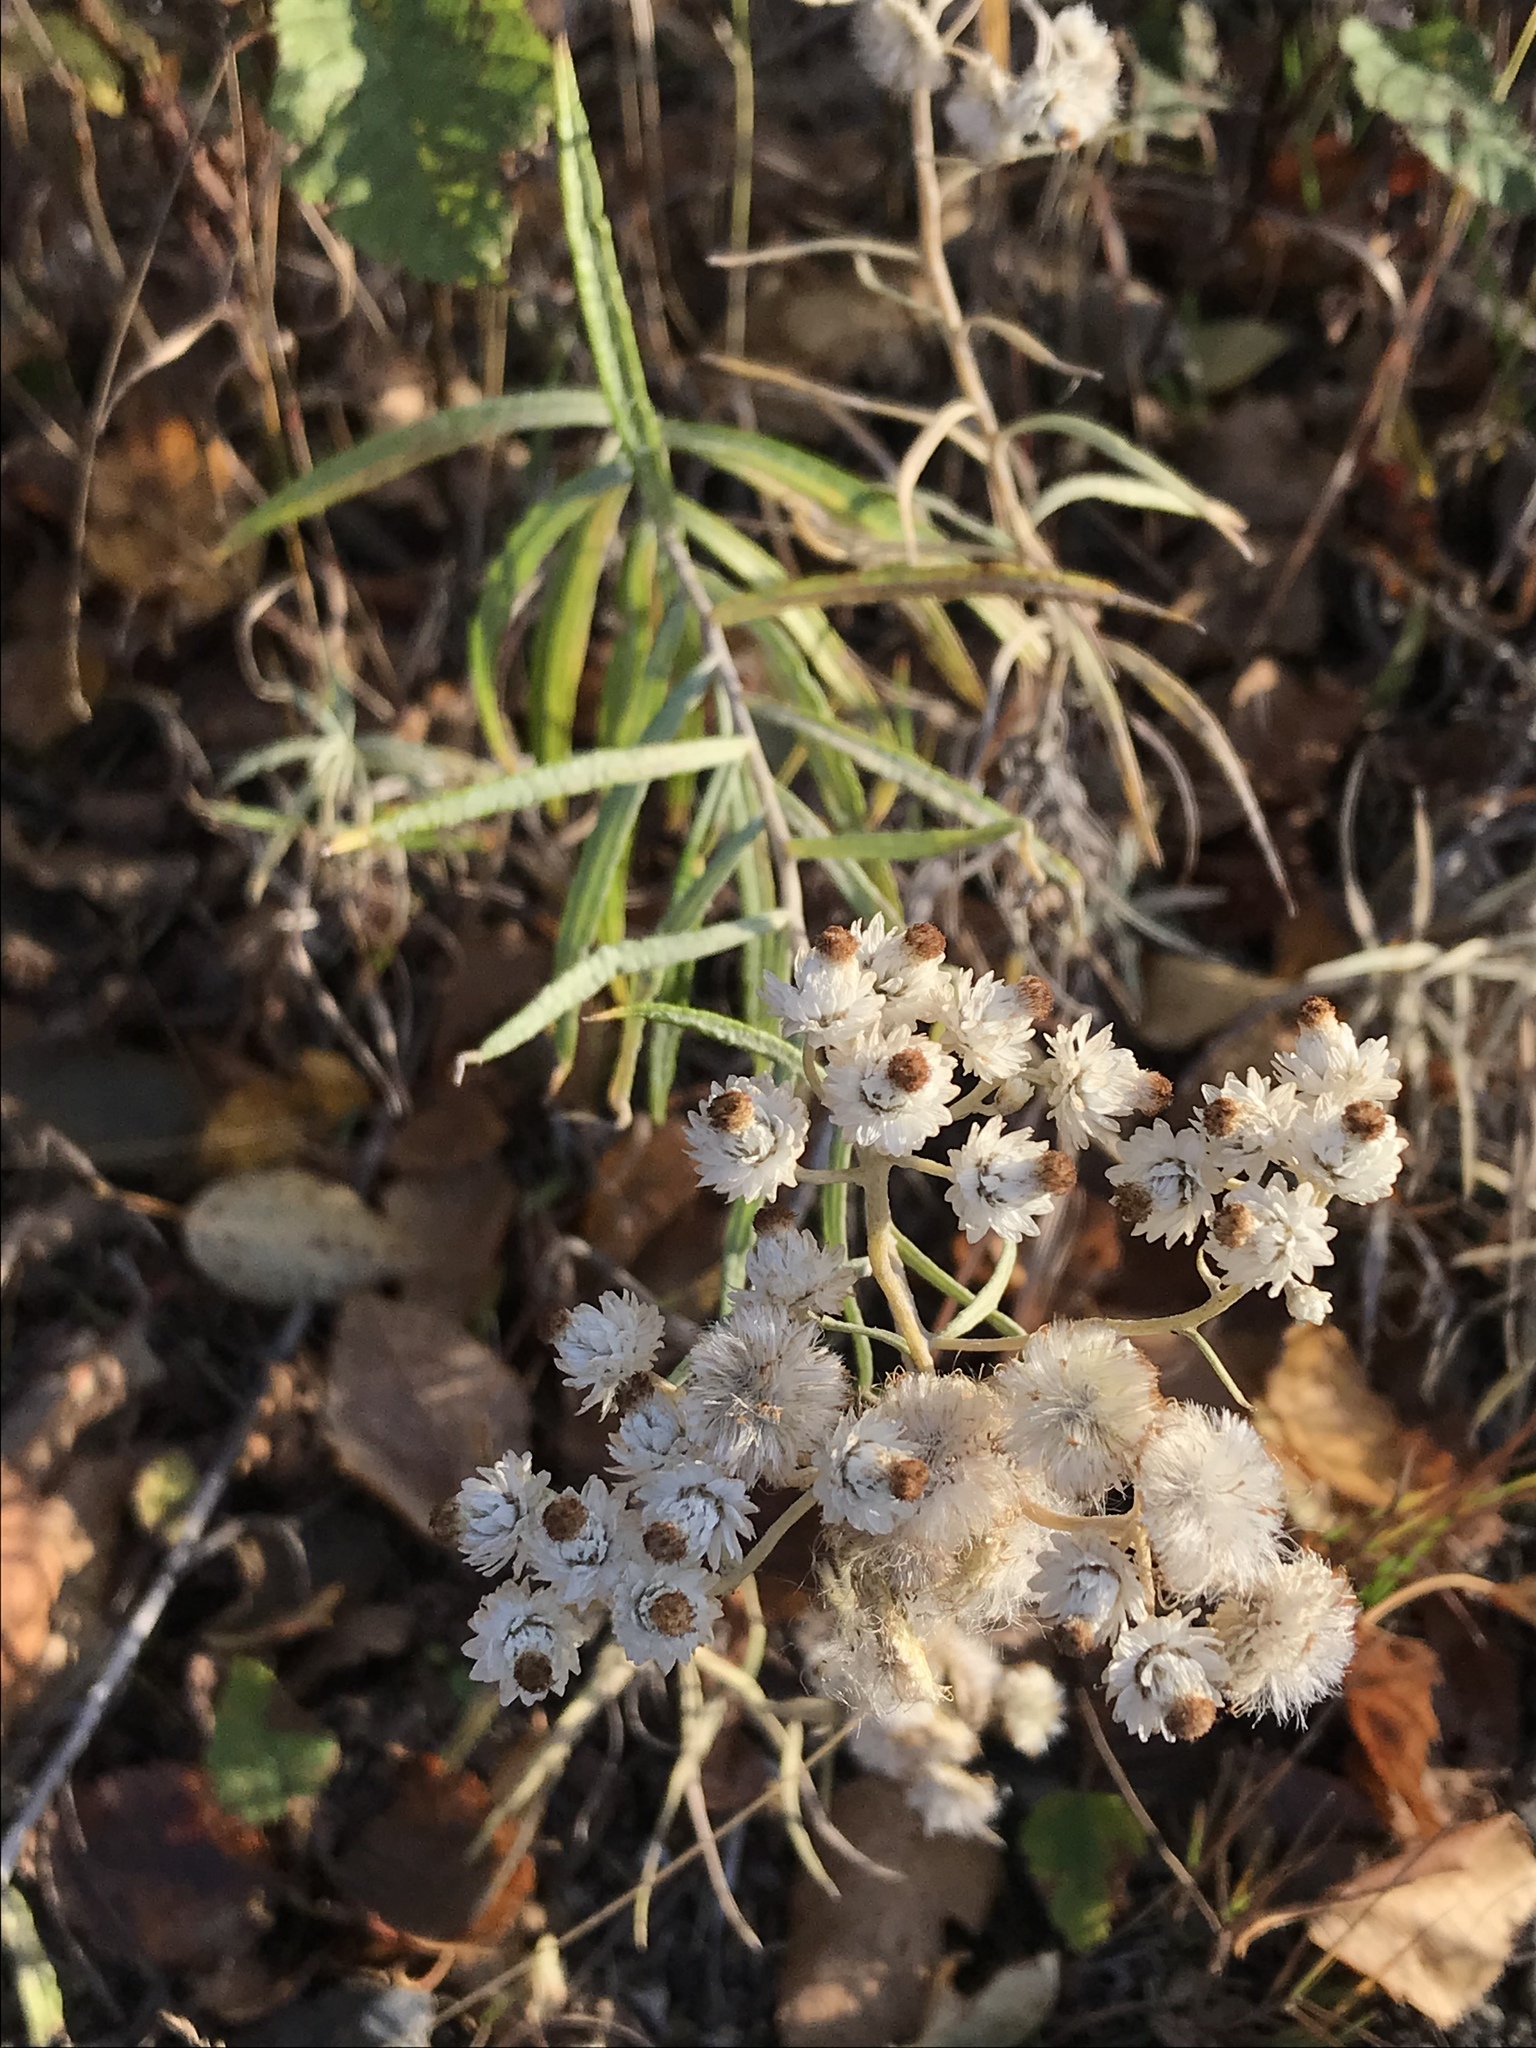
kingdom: Plantae
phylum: Tracheophyta
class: Magnoliopsida
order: Asterales
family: Asteraceae
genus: Anaphalis
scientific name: Anaphalis margaritacea
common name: Pearly everlasting
